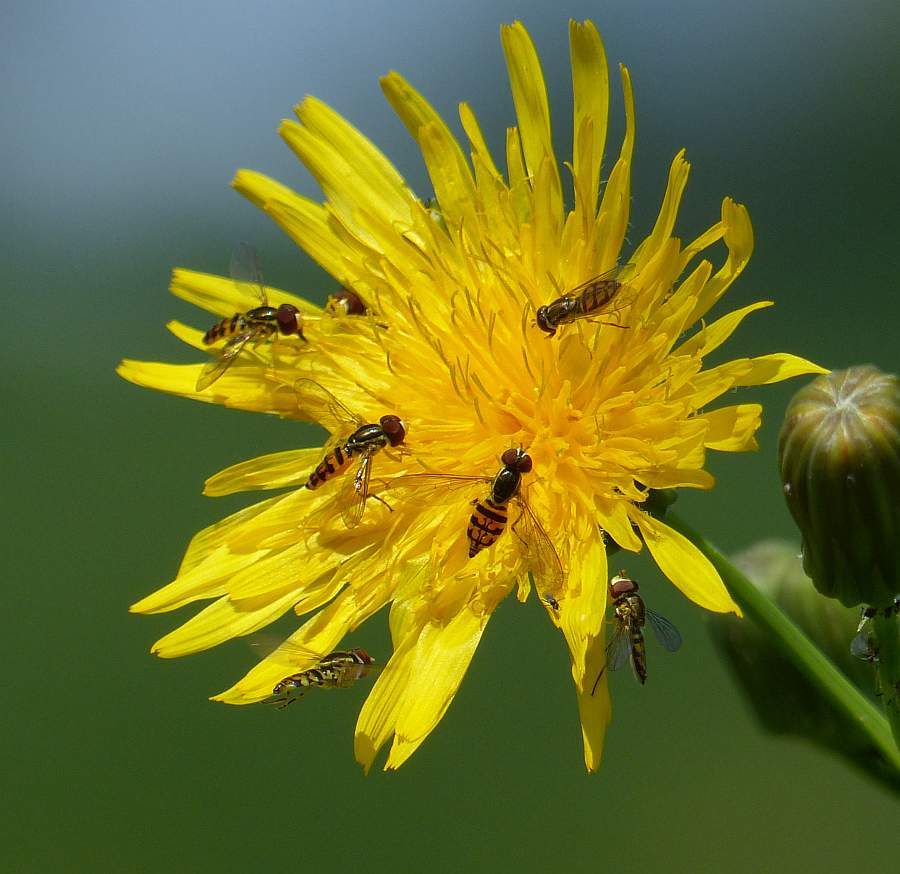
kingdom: Animalia
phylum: Arthropoda
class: Insecta
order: Diptera
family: Syrphidae
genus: Toxomerus
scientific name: Toxomerus geminatus
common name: Eastern calligrapher
